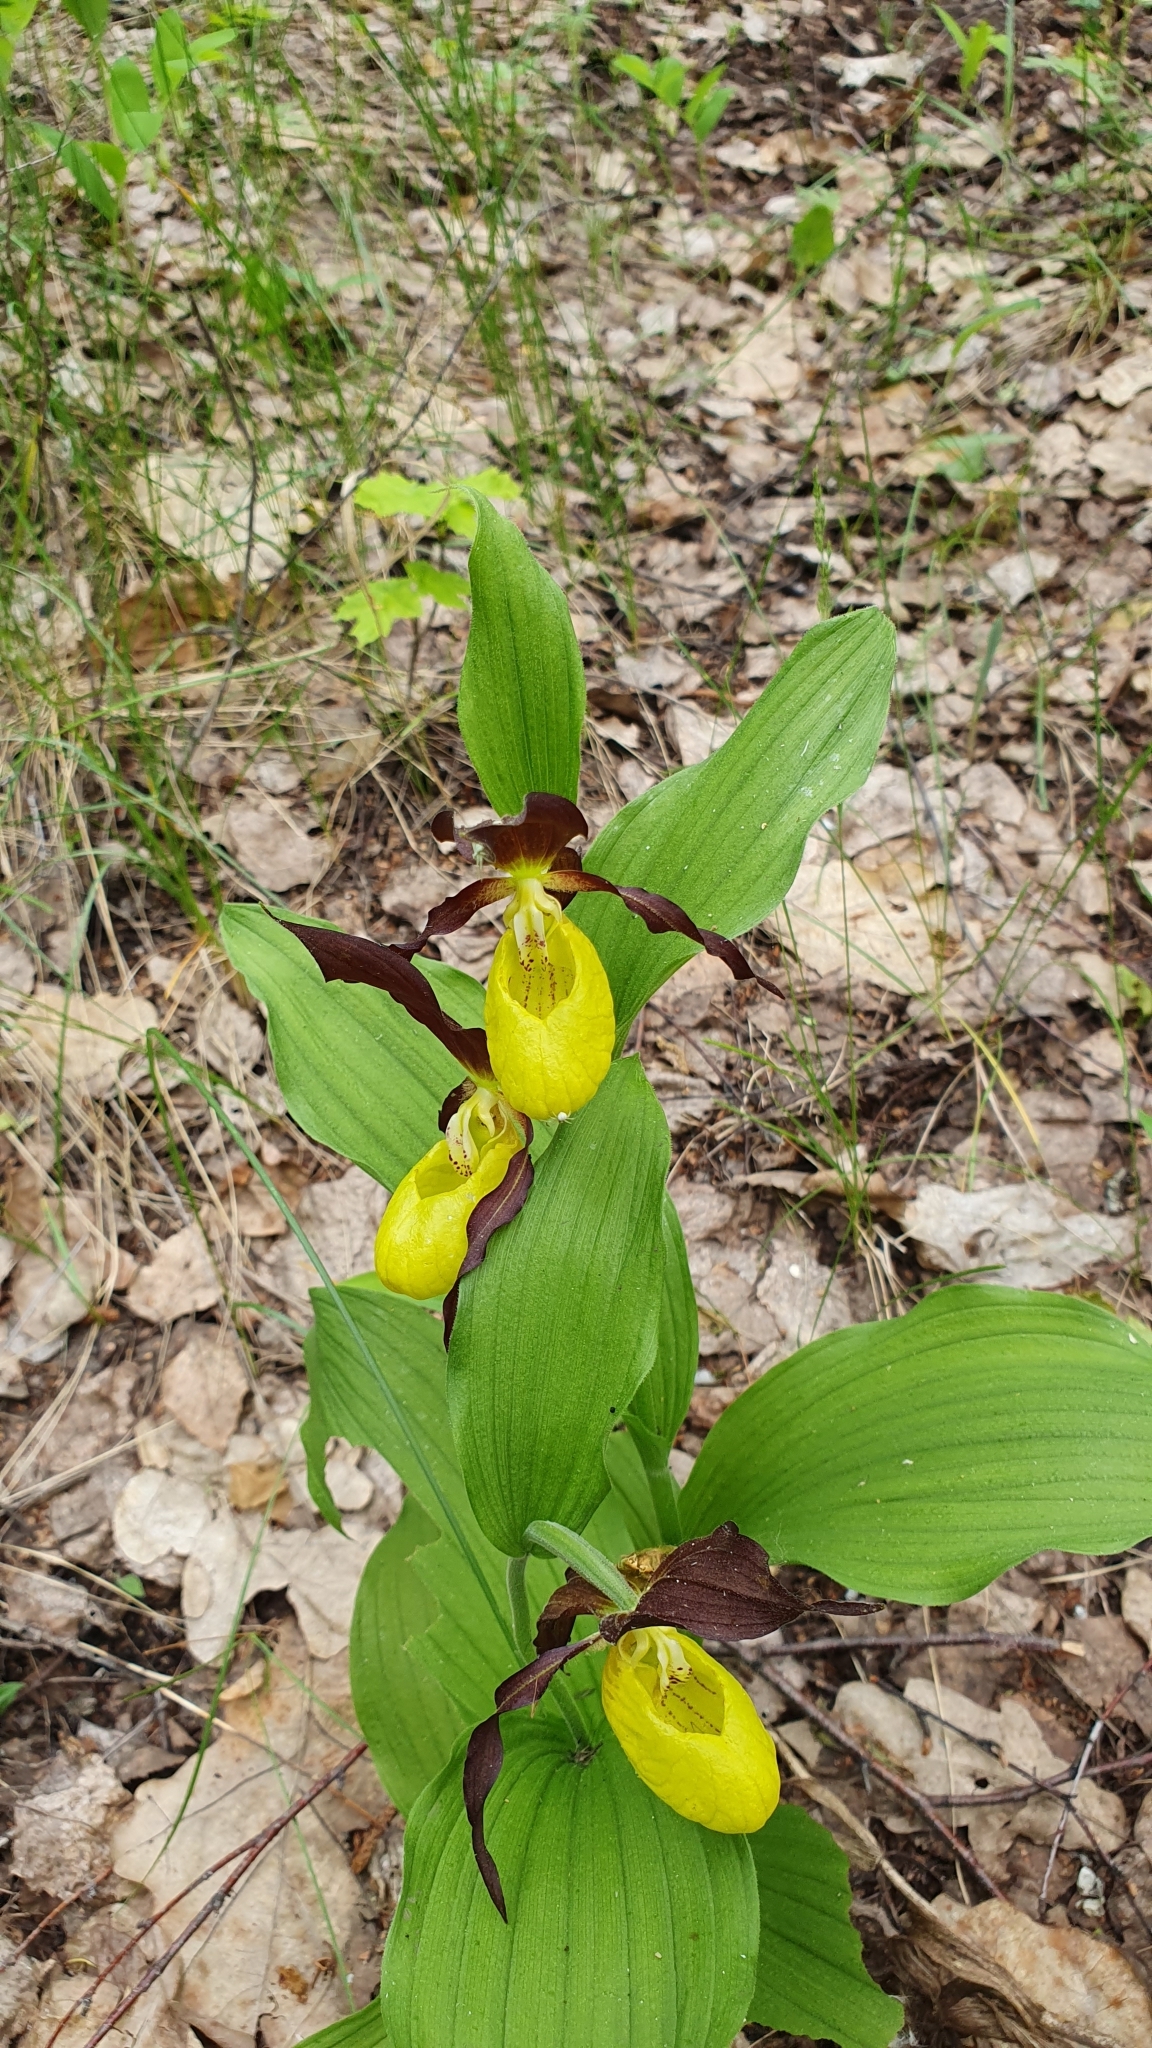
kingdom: Plantae
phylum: Tracheophyta
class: Liliopsida
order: Asparagales
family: Orchidaceae
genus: Cypripedium
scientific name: Cypripedium calceolus
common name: Lady's-slipper
